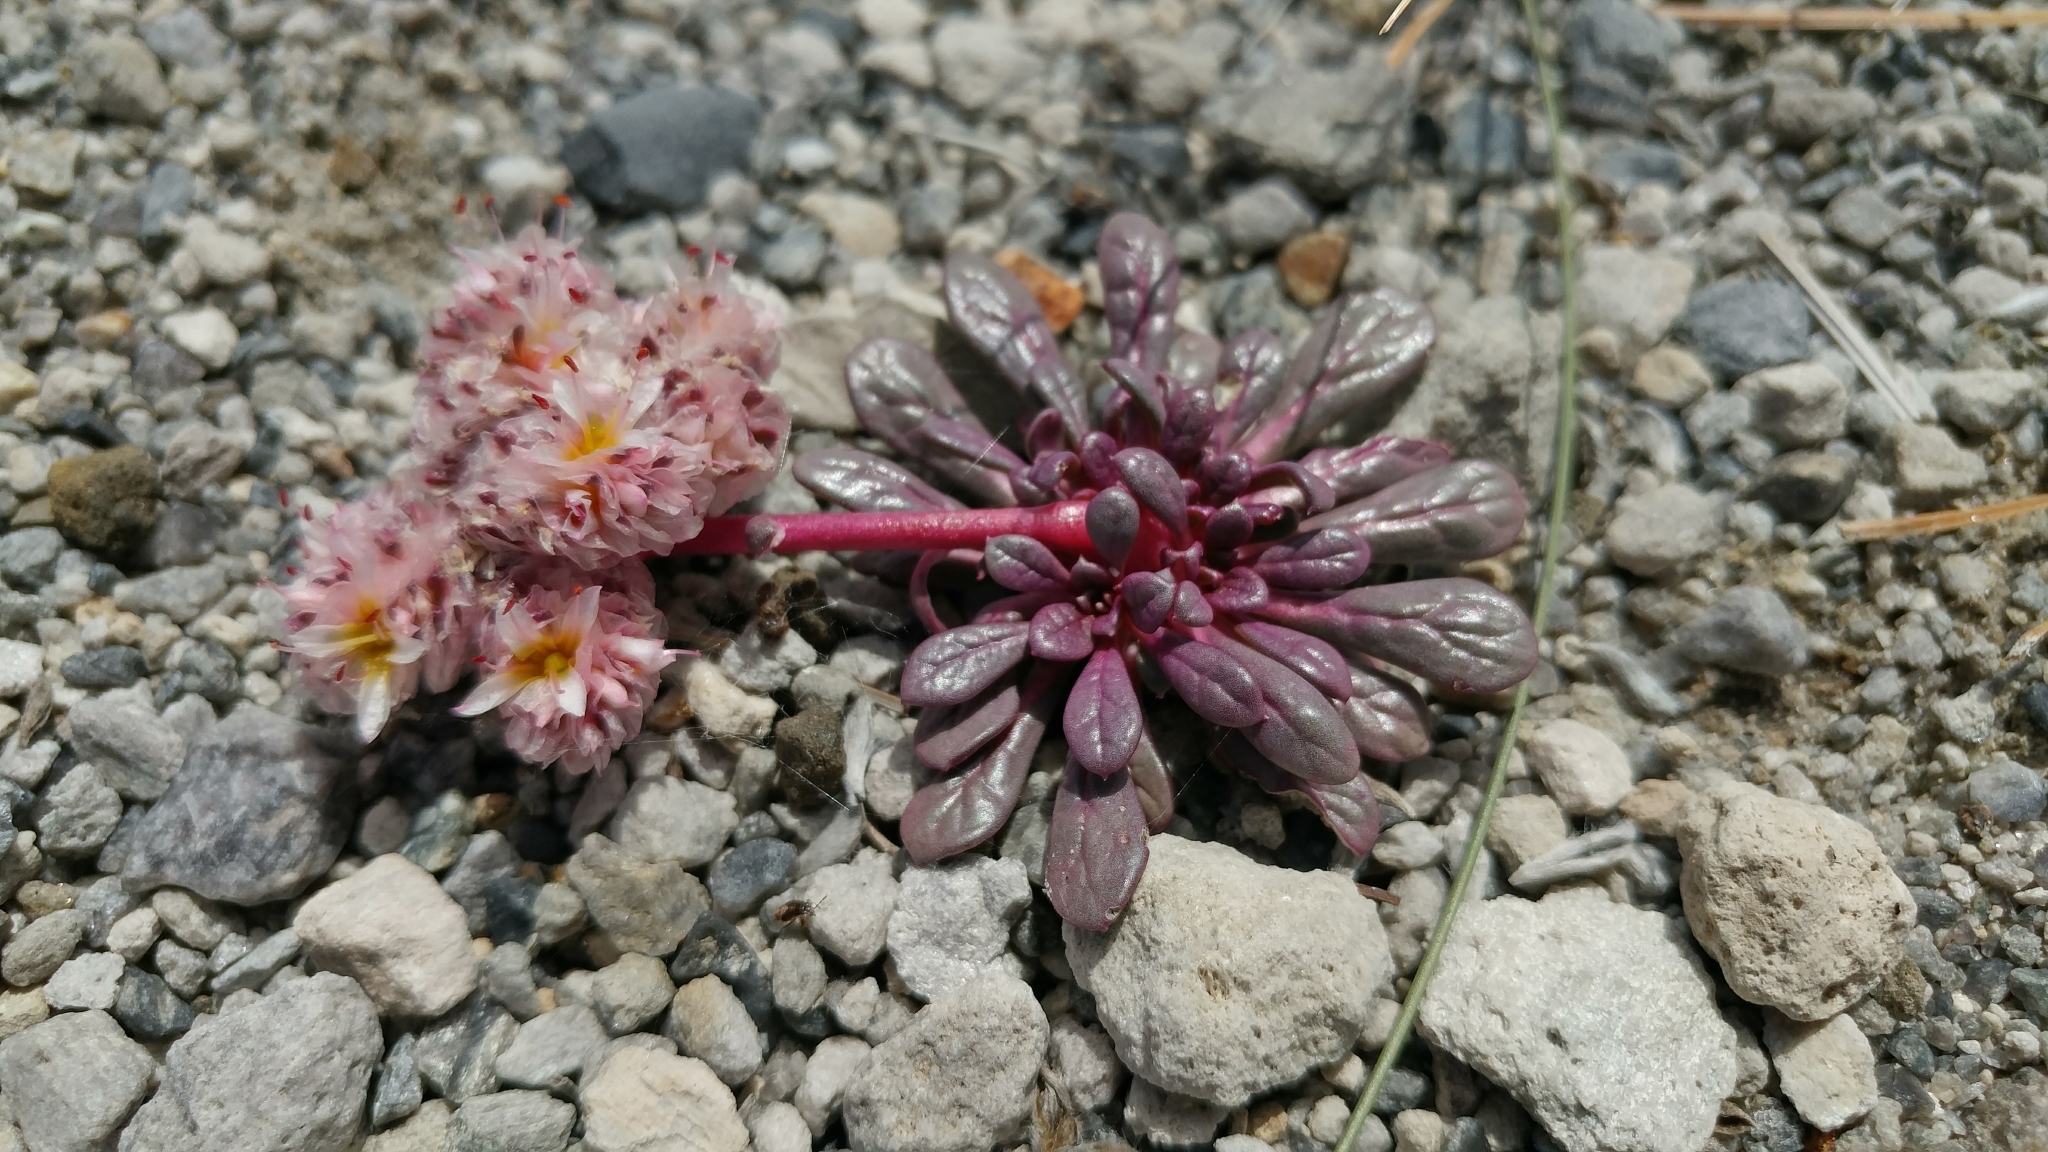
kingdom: Plantae
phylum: Tracheophyta
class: Magnoliopsida
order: Caryophyllales
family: Montiaceae
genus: Calyptridium
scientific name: Calyptridium umbellatum
